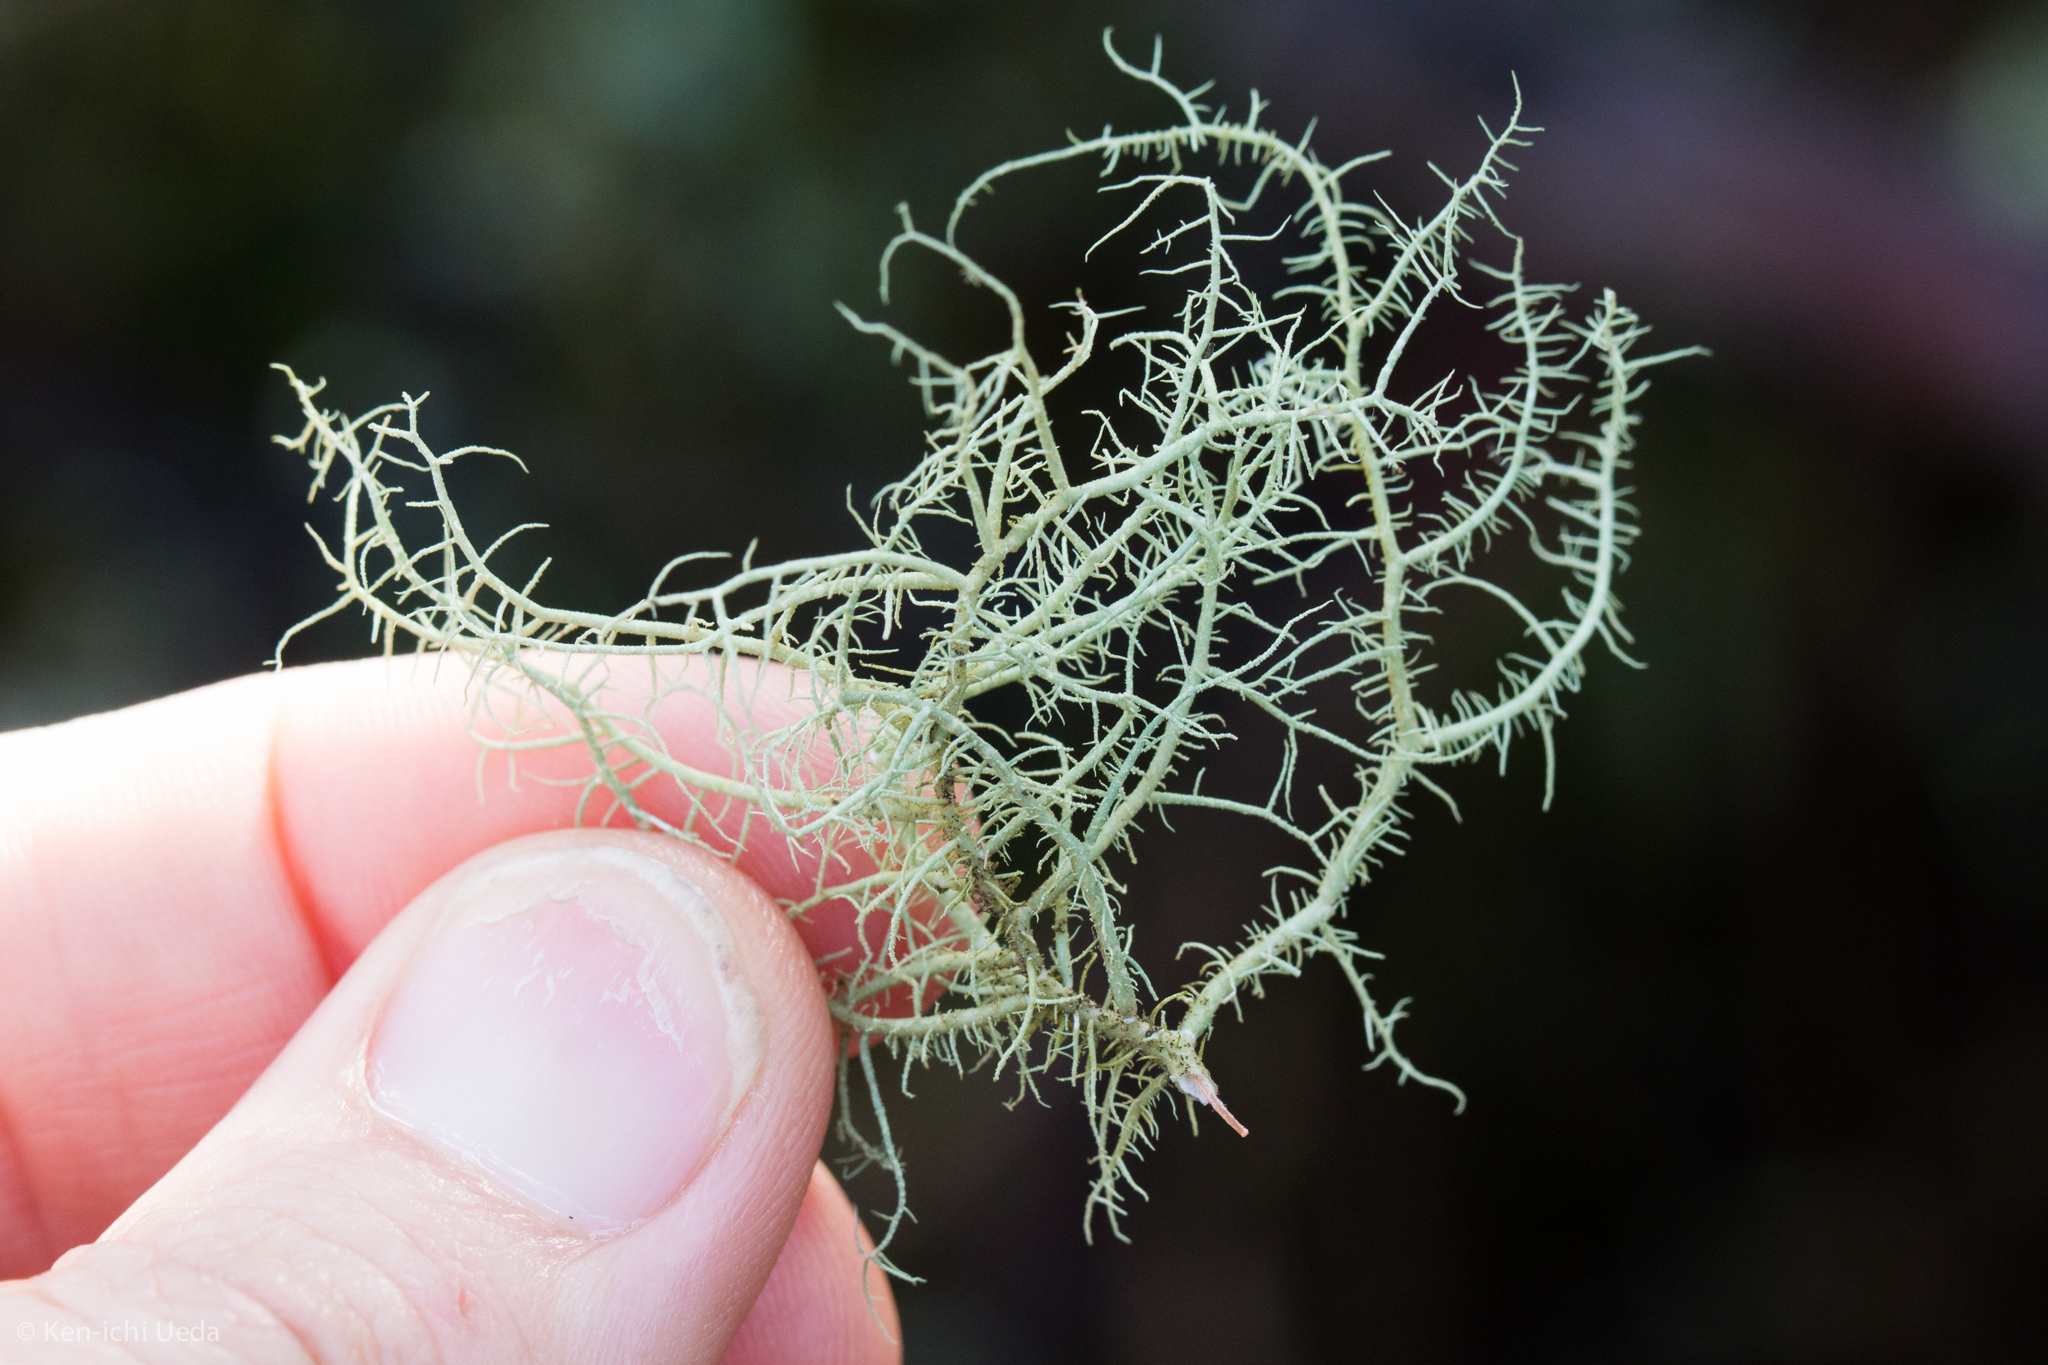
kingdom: Fungi
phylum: Ascomycota
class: Lecanoromycetes
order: Lecanorales
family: Parmeliaceae
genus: Usnea
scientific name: Usnea ceratina
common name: Warty beard lichen
